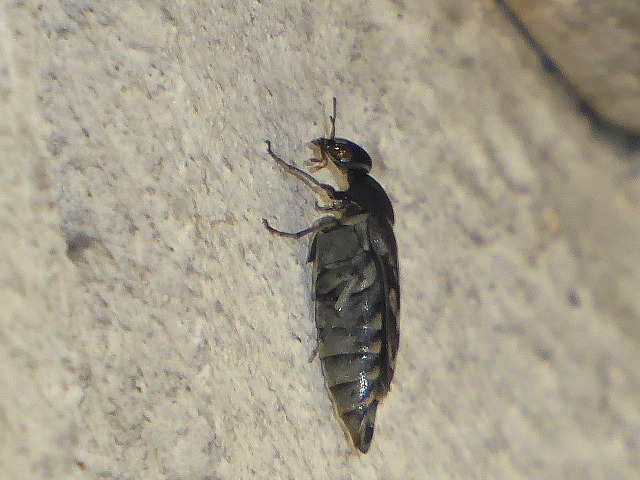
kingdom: Animalia
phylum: Arthropoda
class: Insecta
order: Coleoptera
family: Mordellidae
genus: Yakuhananomia
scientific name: Yakuhananomia bidentata
